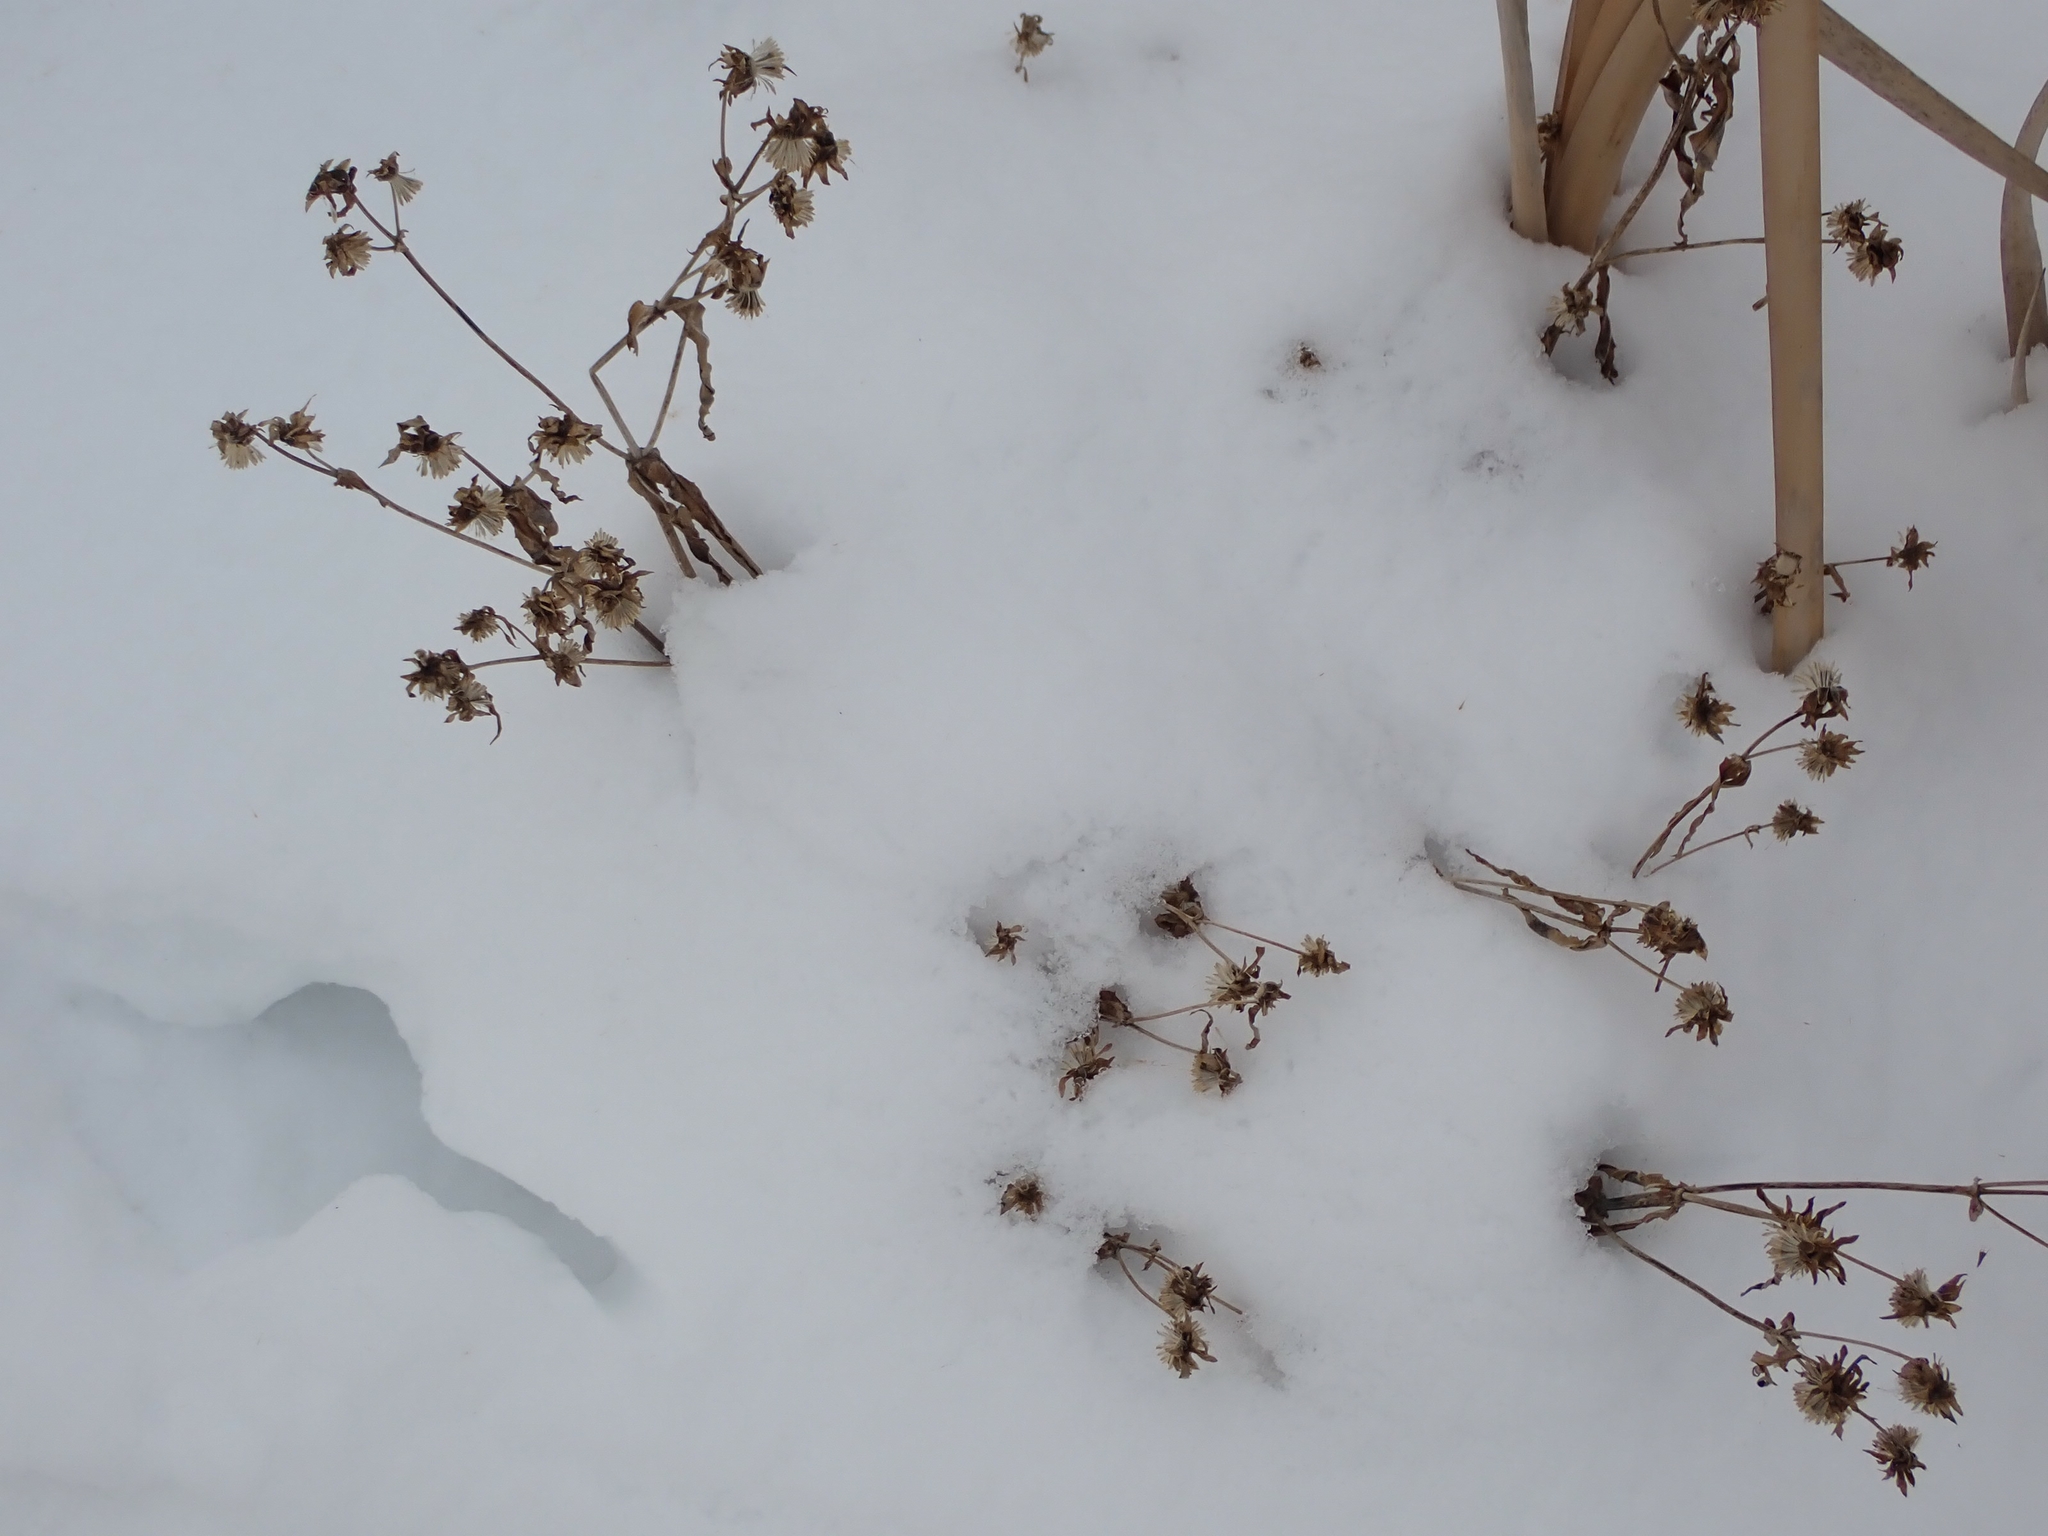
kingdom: Plantae
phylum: Tracheophyta
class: Magnoliopsida
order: Asterales
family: Asteraceae
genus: Bidens
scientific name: Bidens cernua
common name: Nodding bur-marigold
